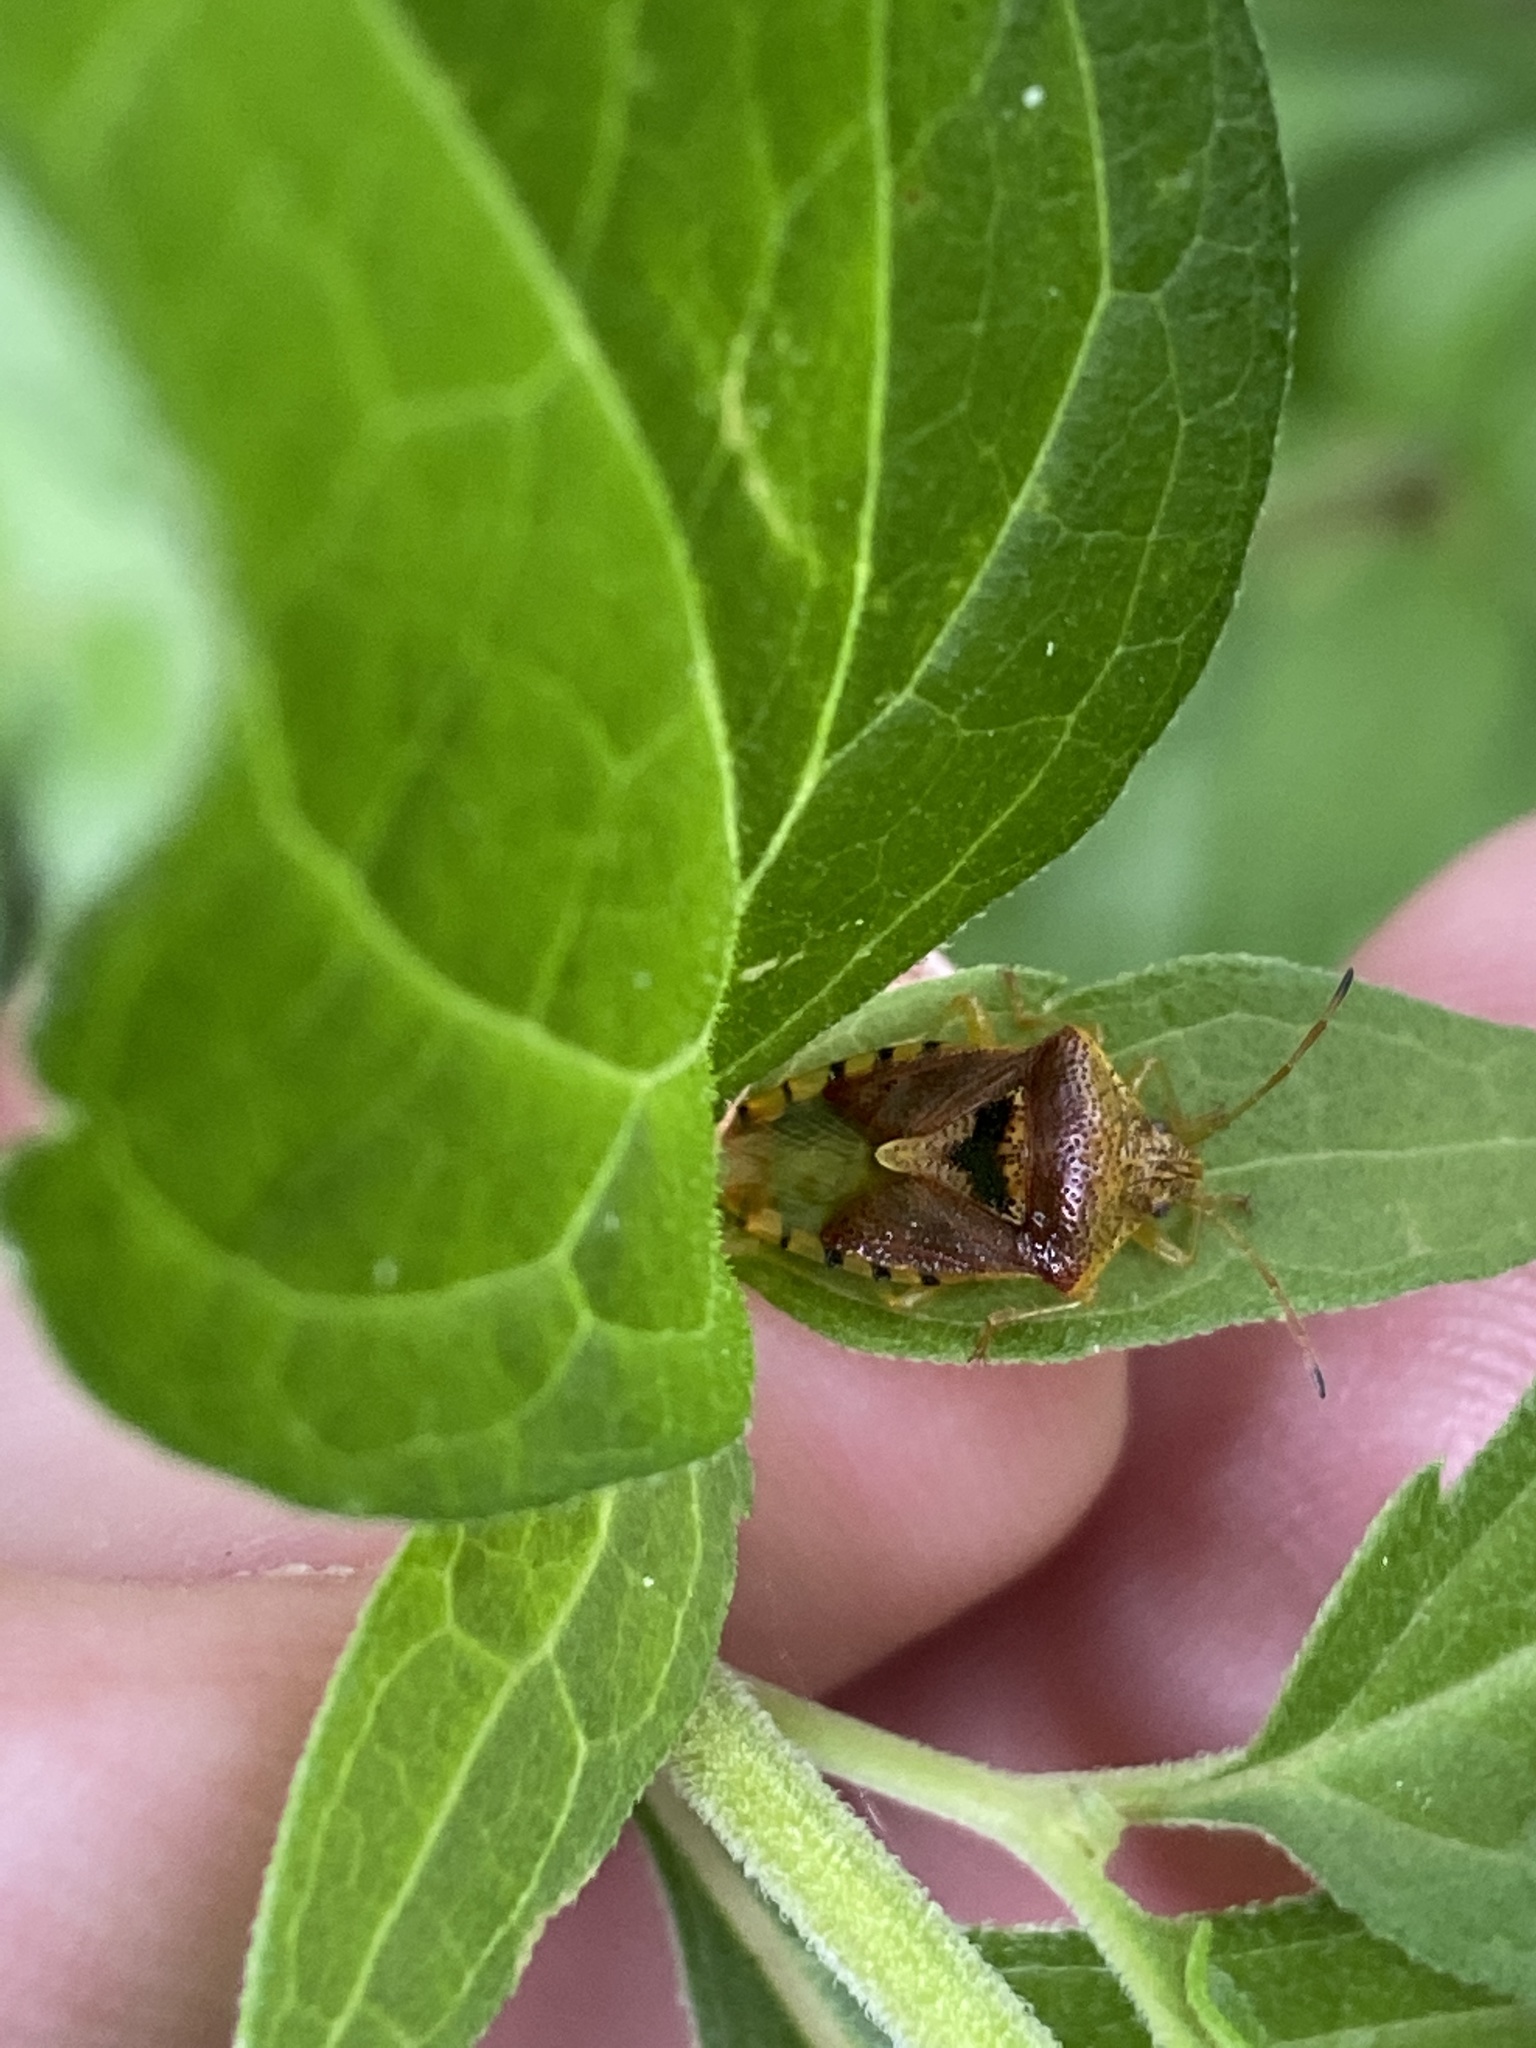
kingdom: Animalia
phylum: Arthropoda
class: Insecta
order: Hemiptera
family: Acanthosomatidae
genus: Elasmucha
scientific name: Elasmucha grisea
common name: Parent bug
